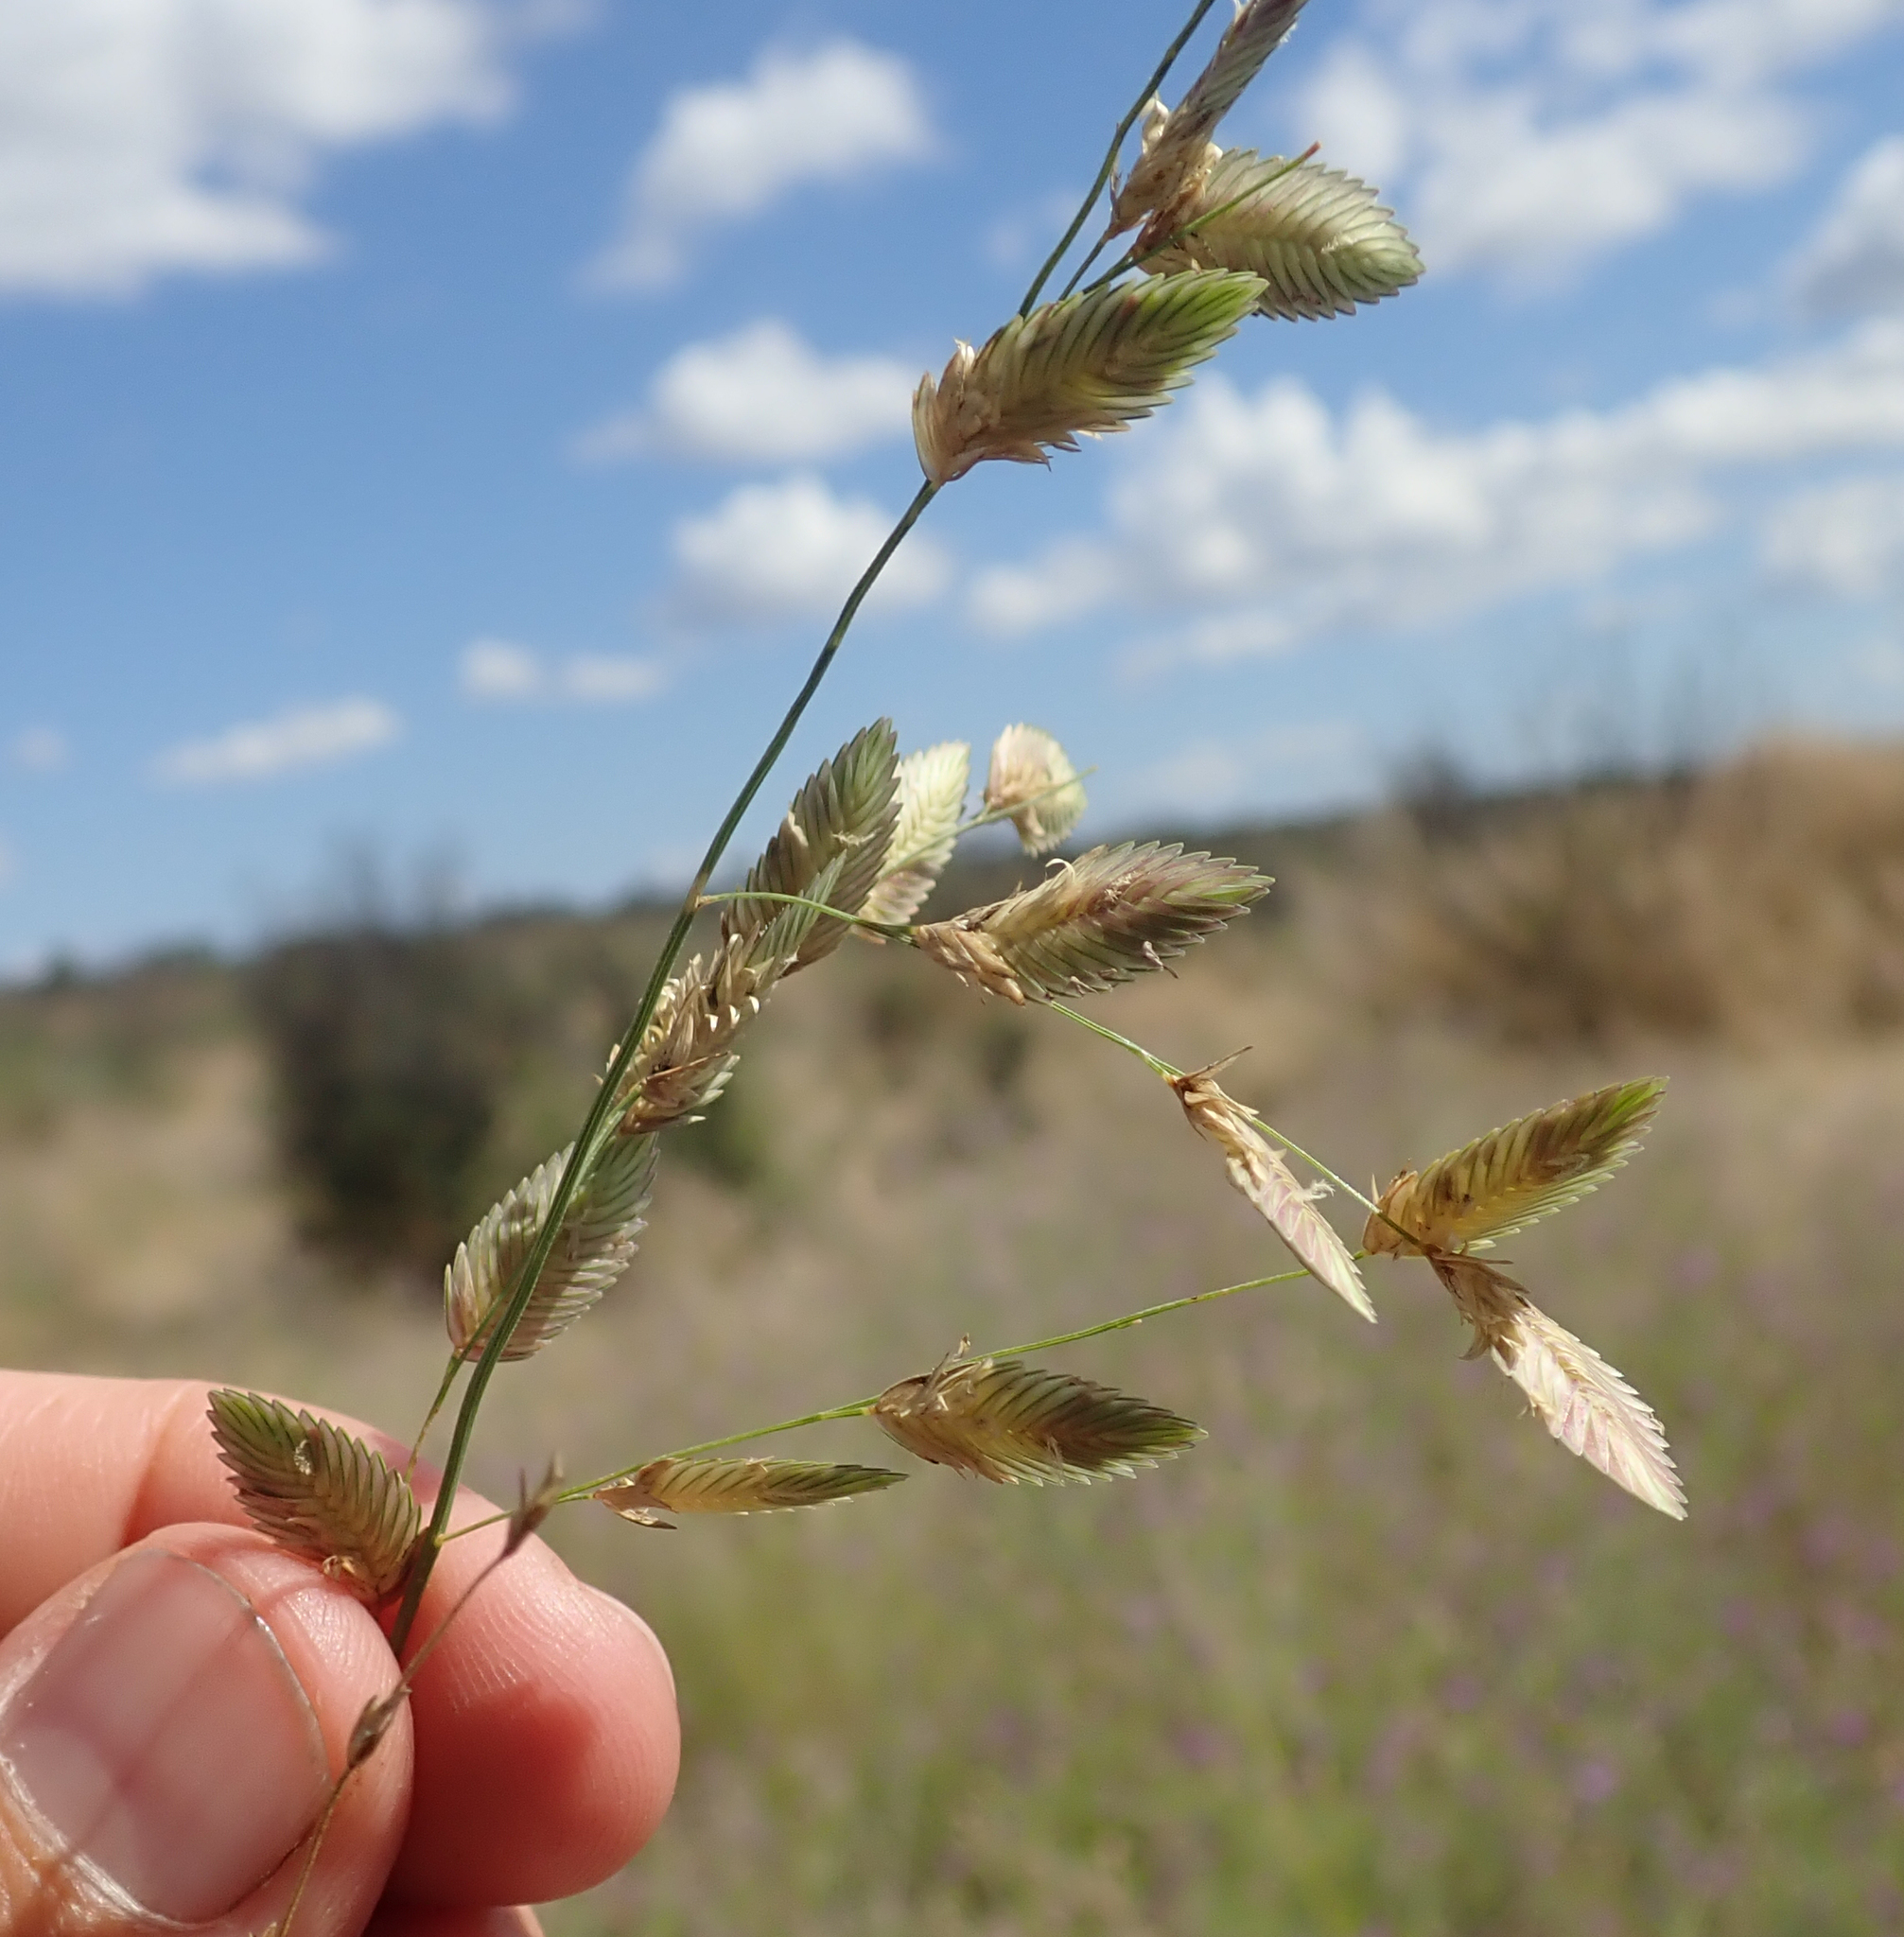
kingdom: Plantae
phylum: Tracheophyta
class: Liliopsida
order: Poales
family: Poaceae
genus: Eragrostis
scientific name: Eragrostis superba
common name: Wilman lovegrass
